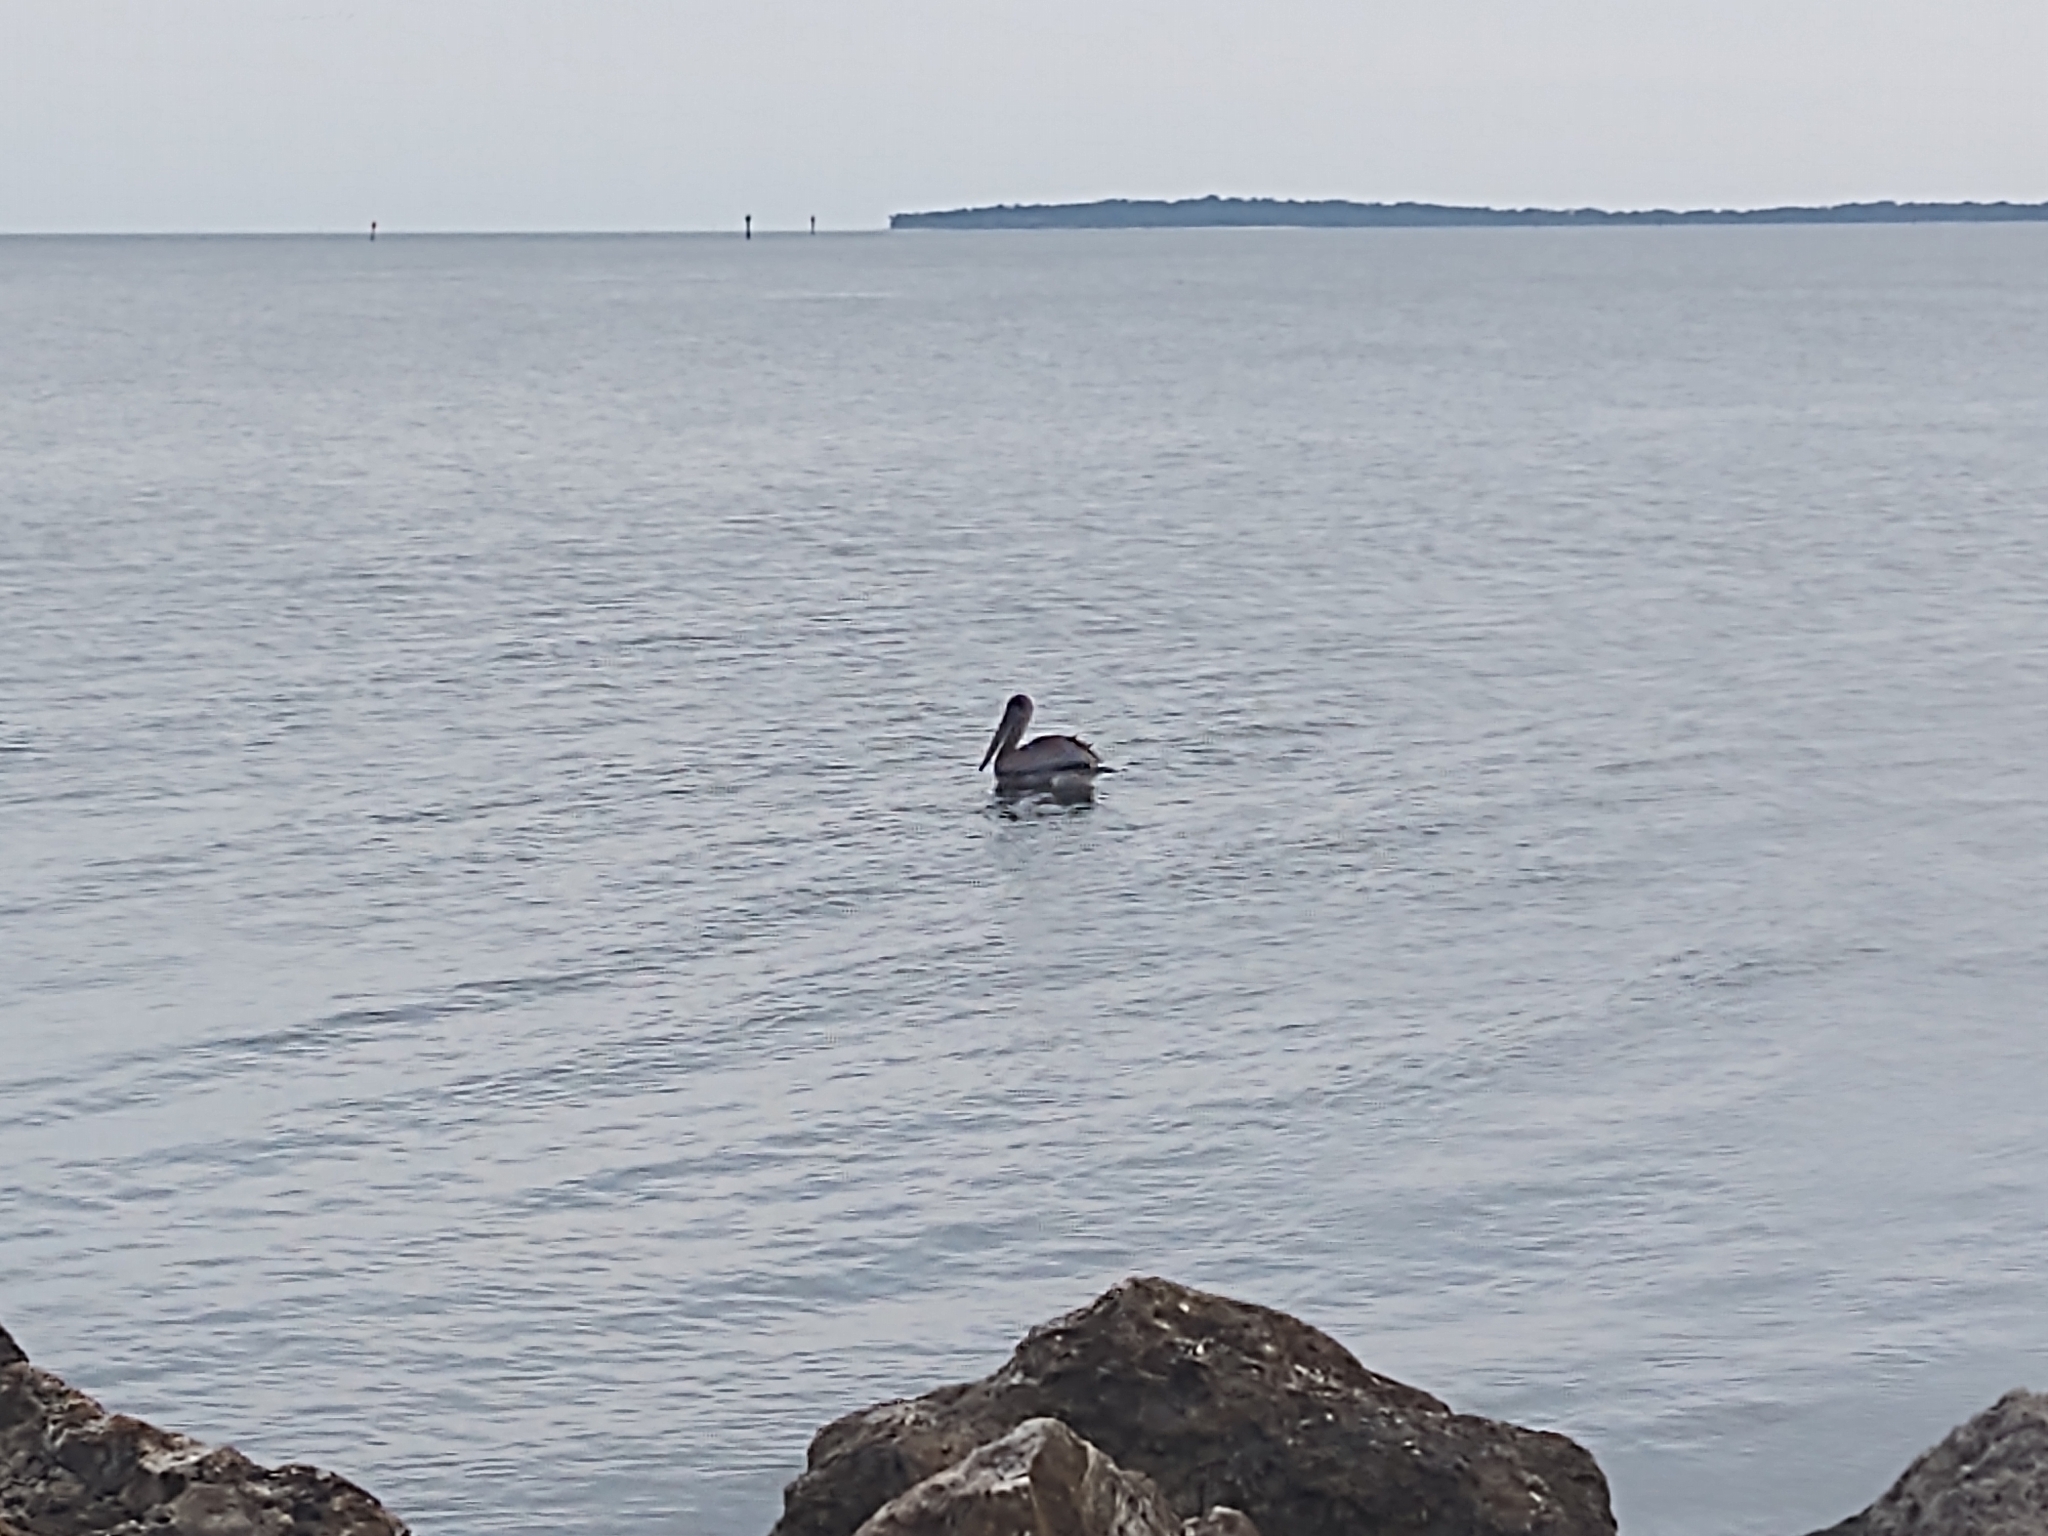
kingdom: Animalia
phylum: Chordata
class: Aves
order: Pelecaniformes
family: Pelecanidae
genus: Pelecanus
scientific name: Pelecanus occidentalis
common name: Brown pelican
